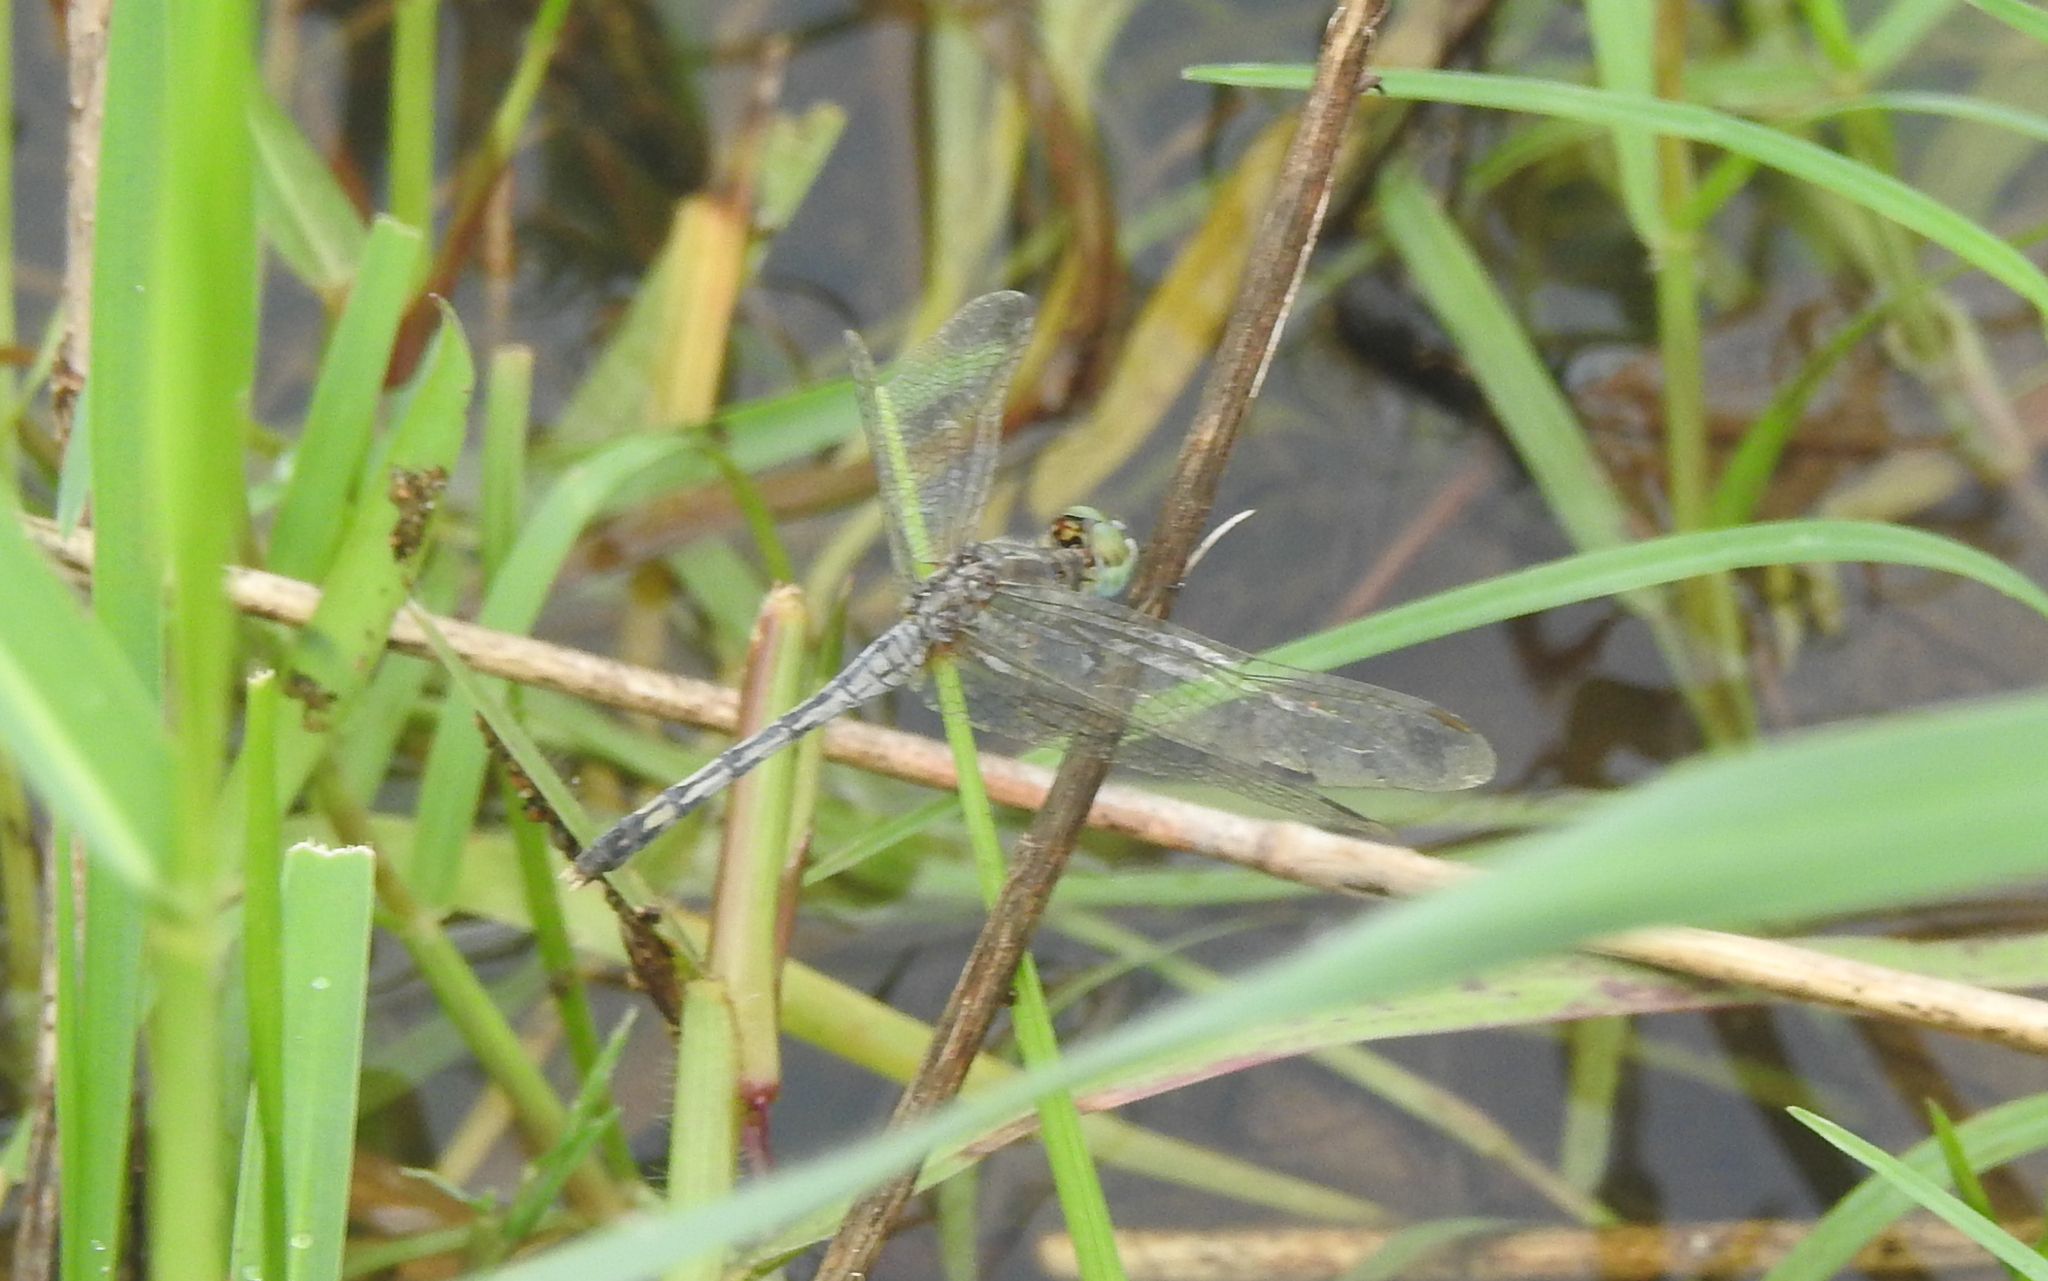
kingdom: Animalia
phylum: Arthropoda
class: Insecta
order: Odonata
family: Libellulidae
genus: Diplacodes
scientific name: Diplacodes trivialis
